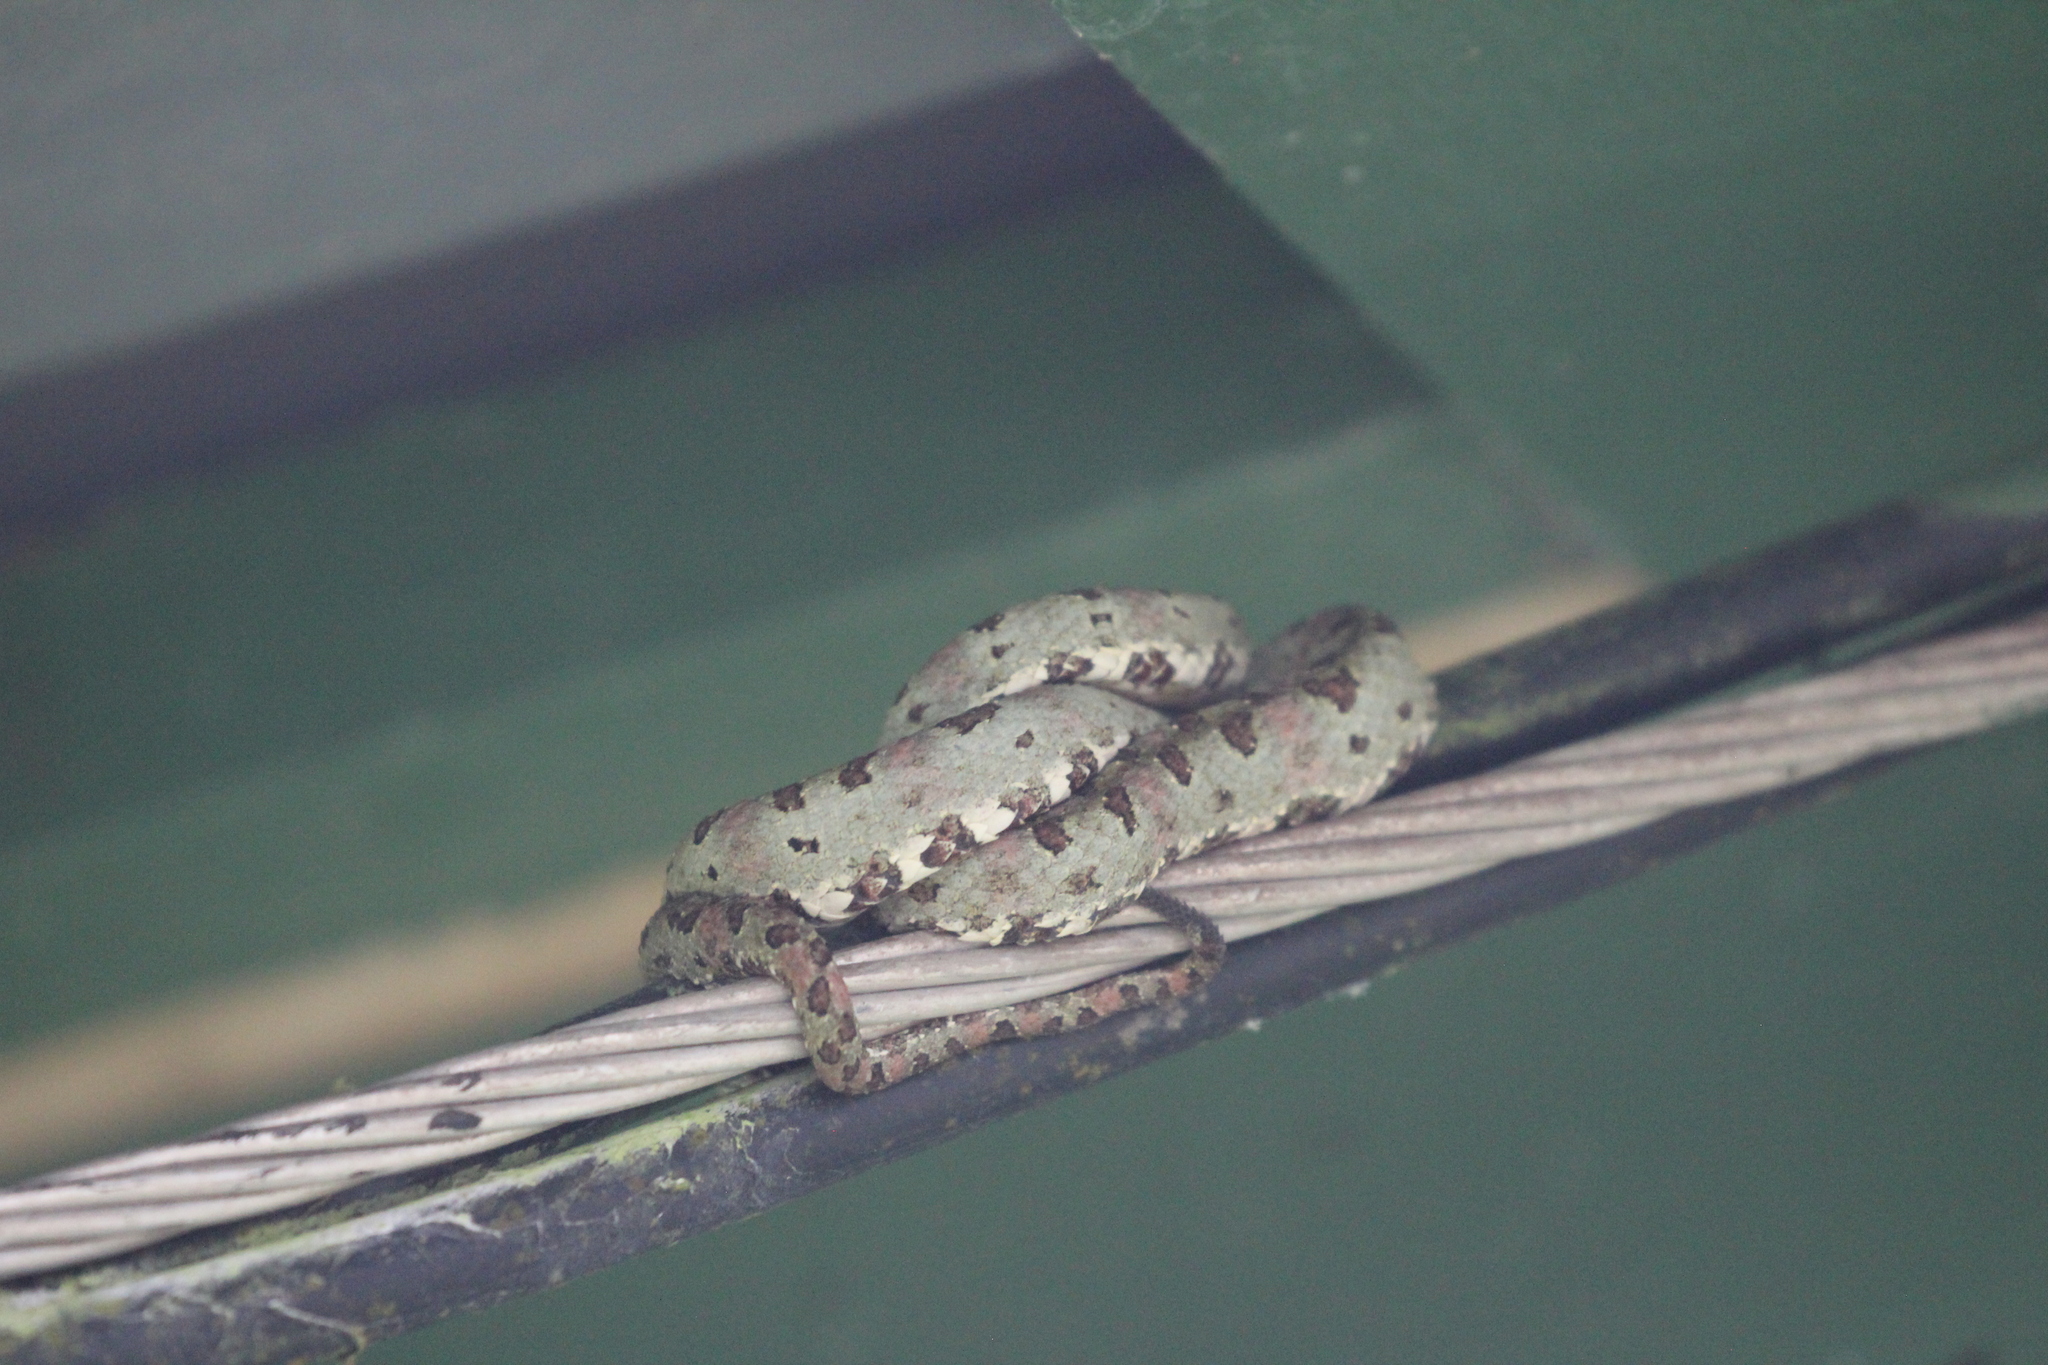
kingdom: Animalia
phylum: Chordata
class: Squamata
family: Viperidae
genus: Bothriechis
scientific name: Bothriechis schlegelii
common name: Eyelash viper
